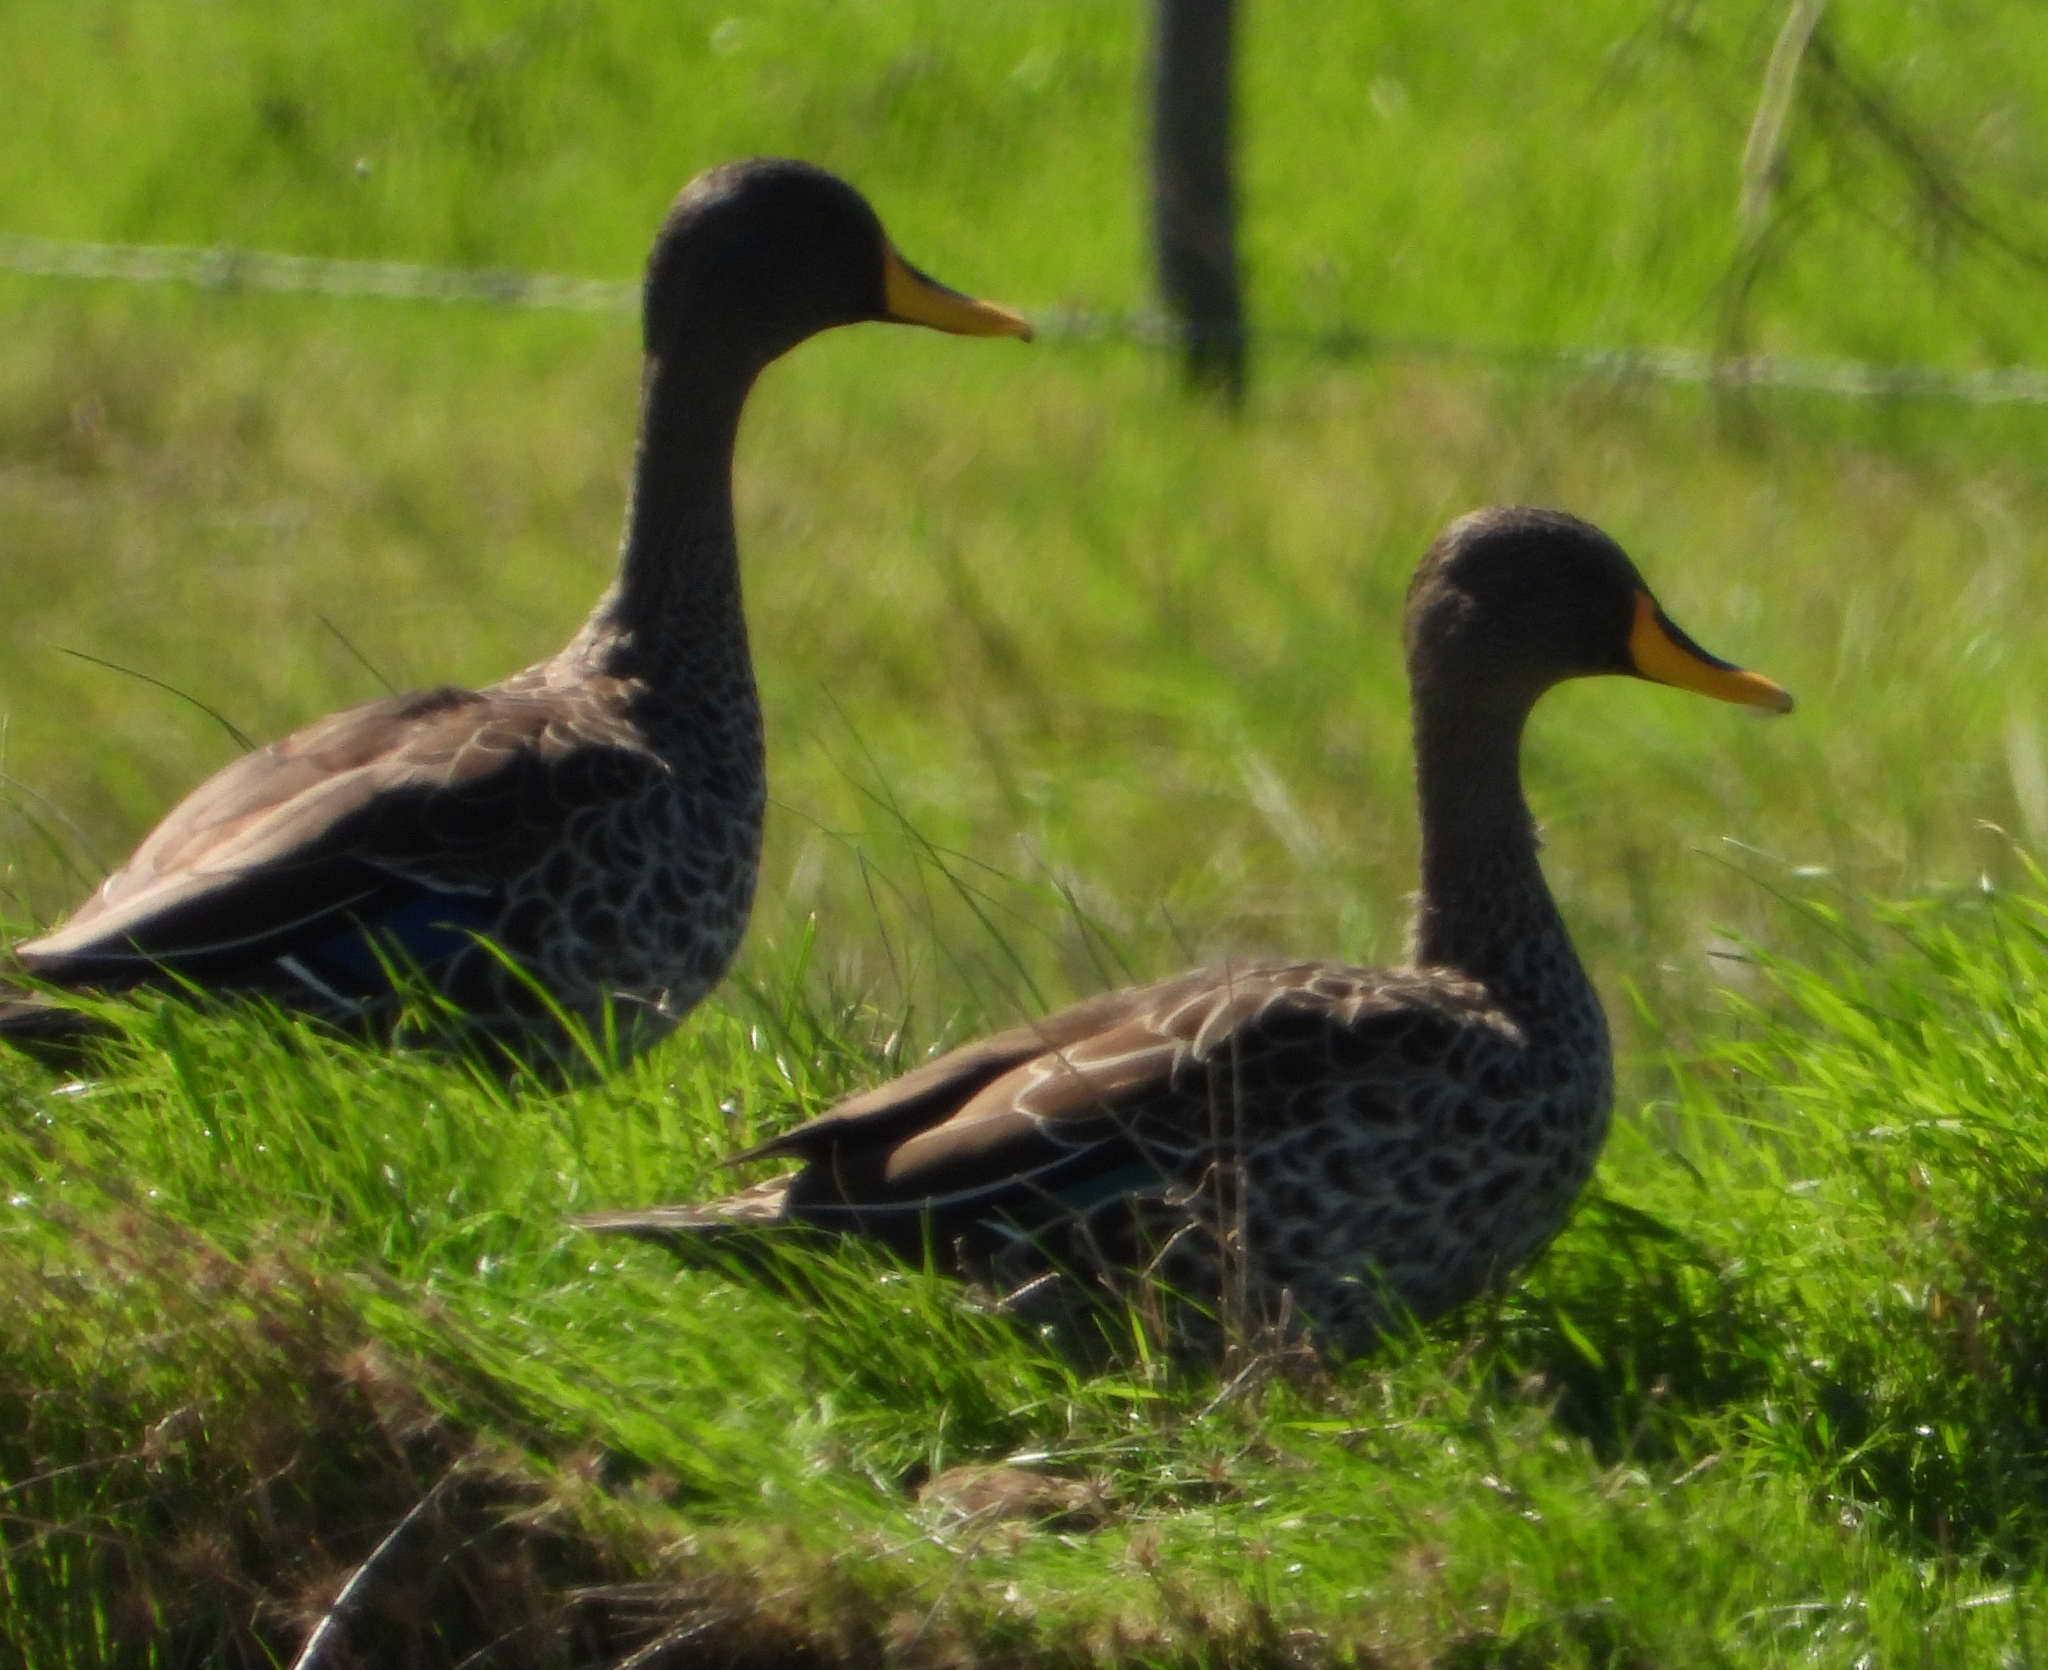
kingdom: Animalia
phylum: Chordata
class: Aves
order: Anseriformes
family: Anatidae
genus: Anas
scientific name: Anas undulata
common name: Yellow-billed duck
